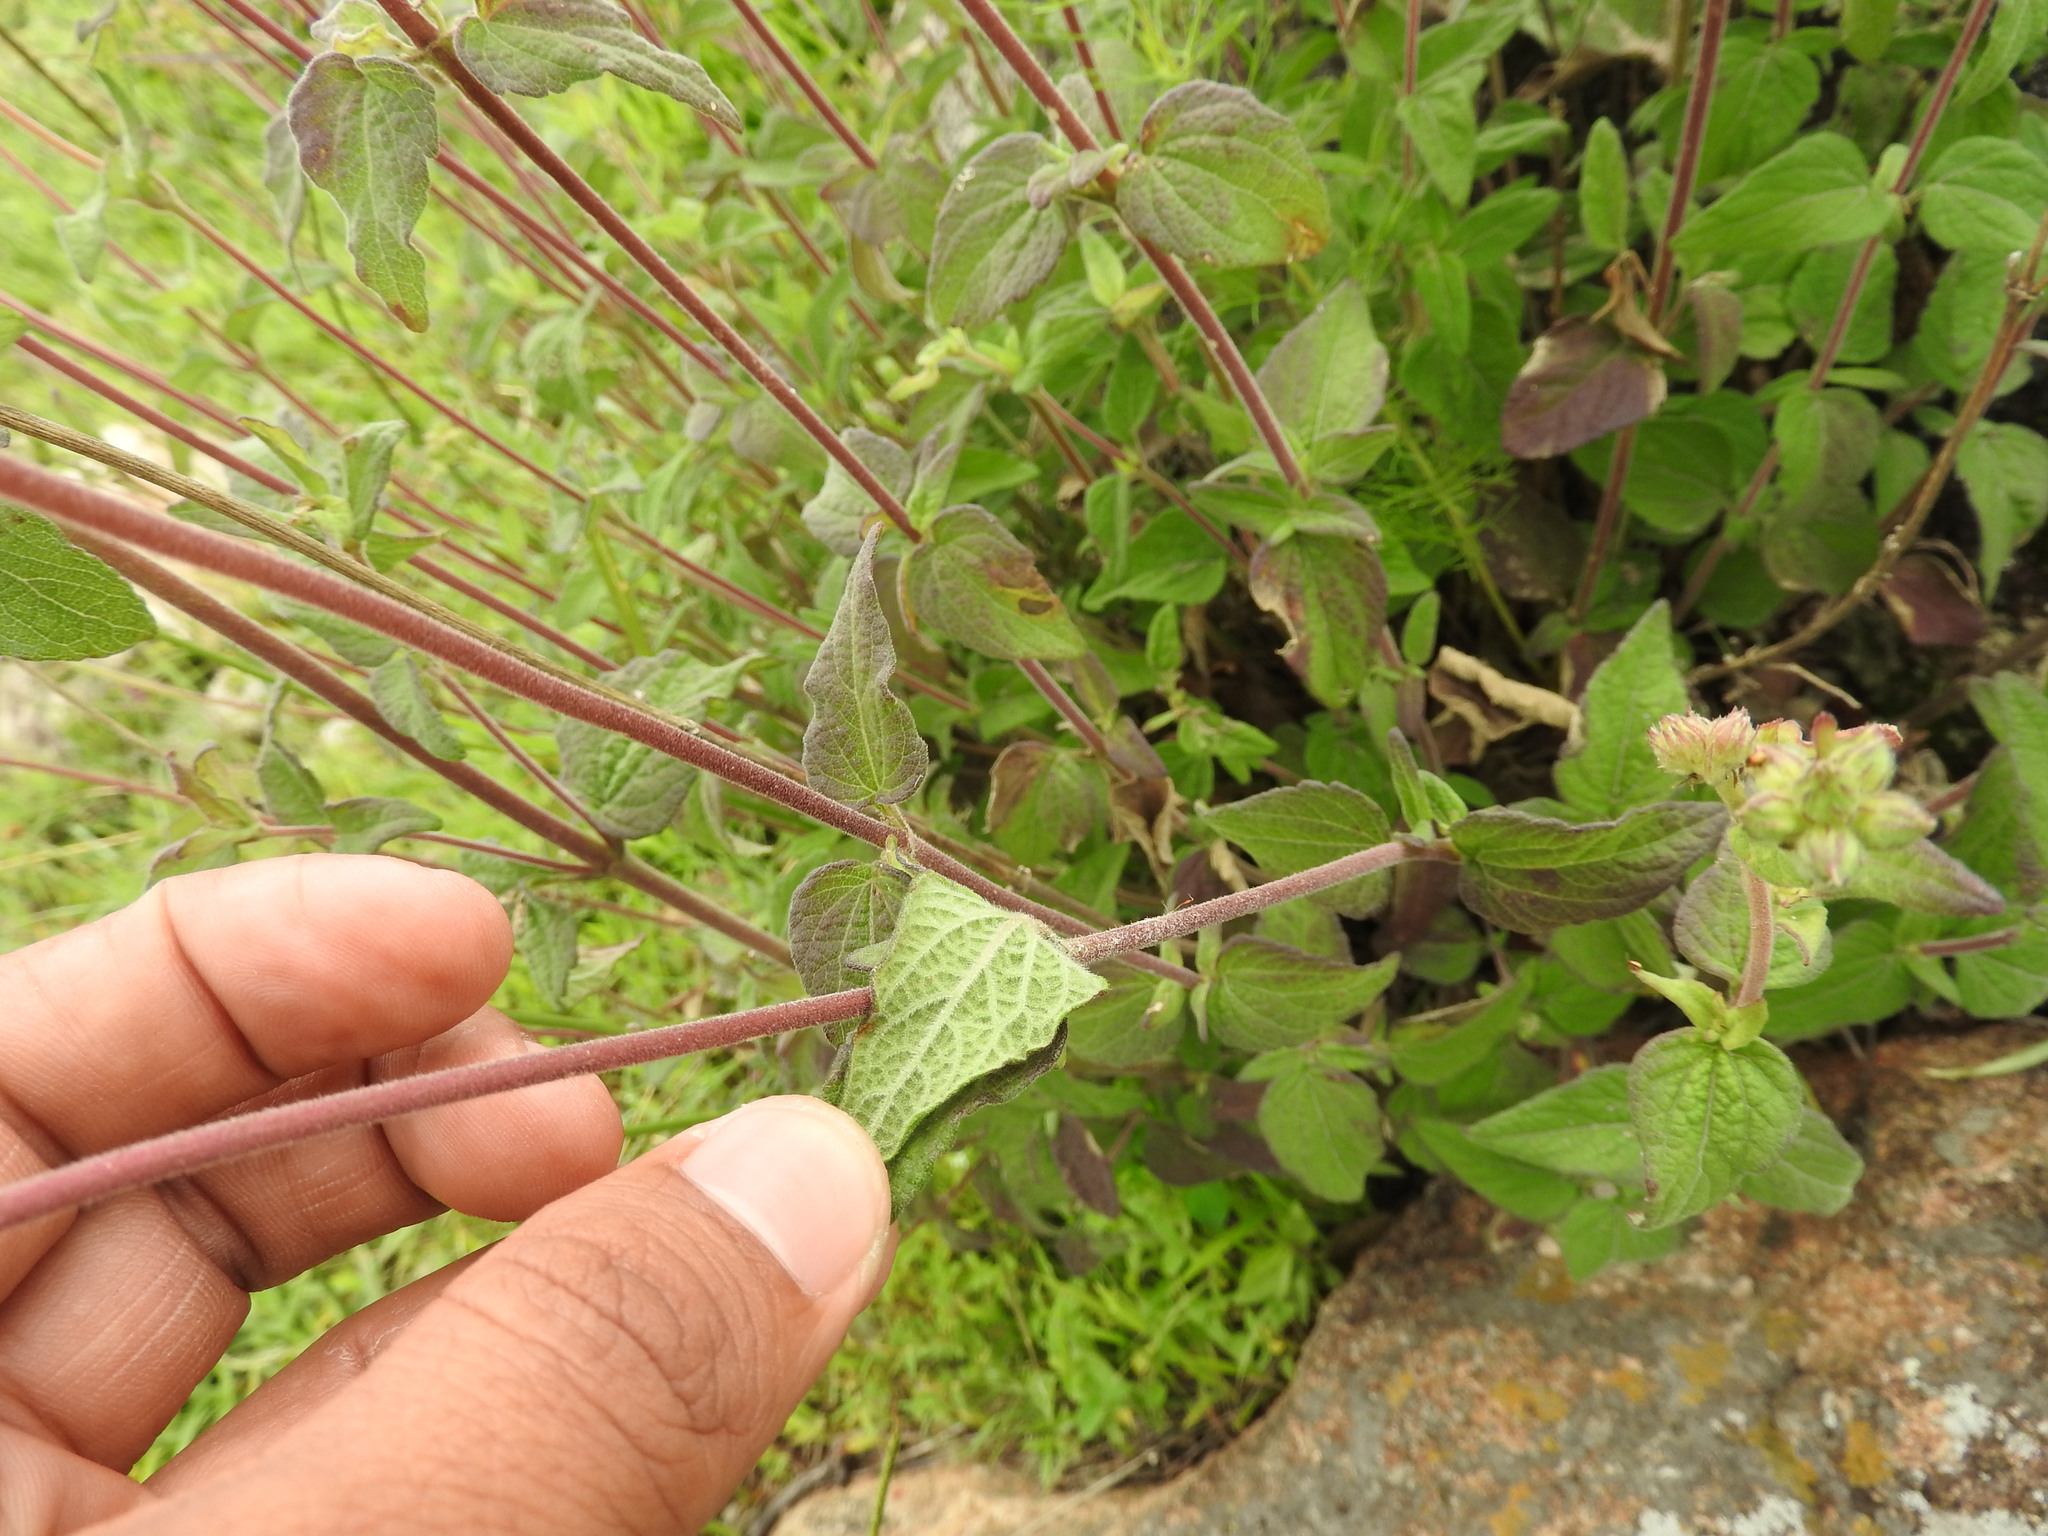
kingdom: Plantae
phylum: Tracheophyta
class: Magnoliopsida
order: Asterales
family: Asteraceae
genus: Ageratum
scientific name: Ageratum corymbosum
